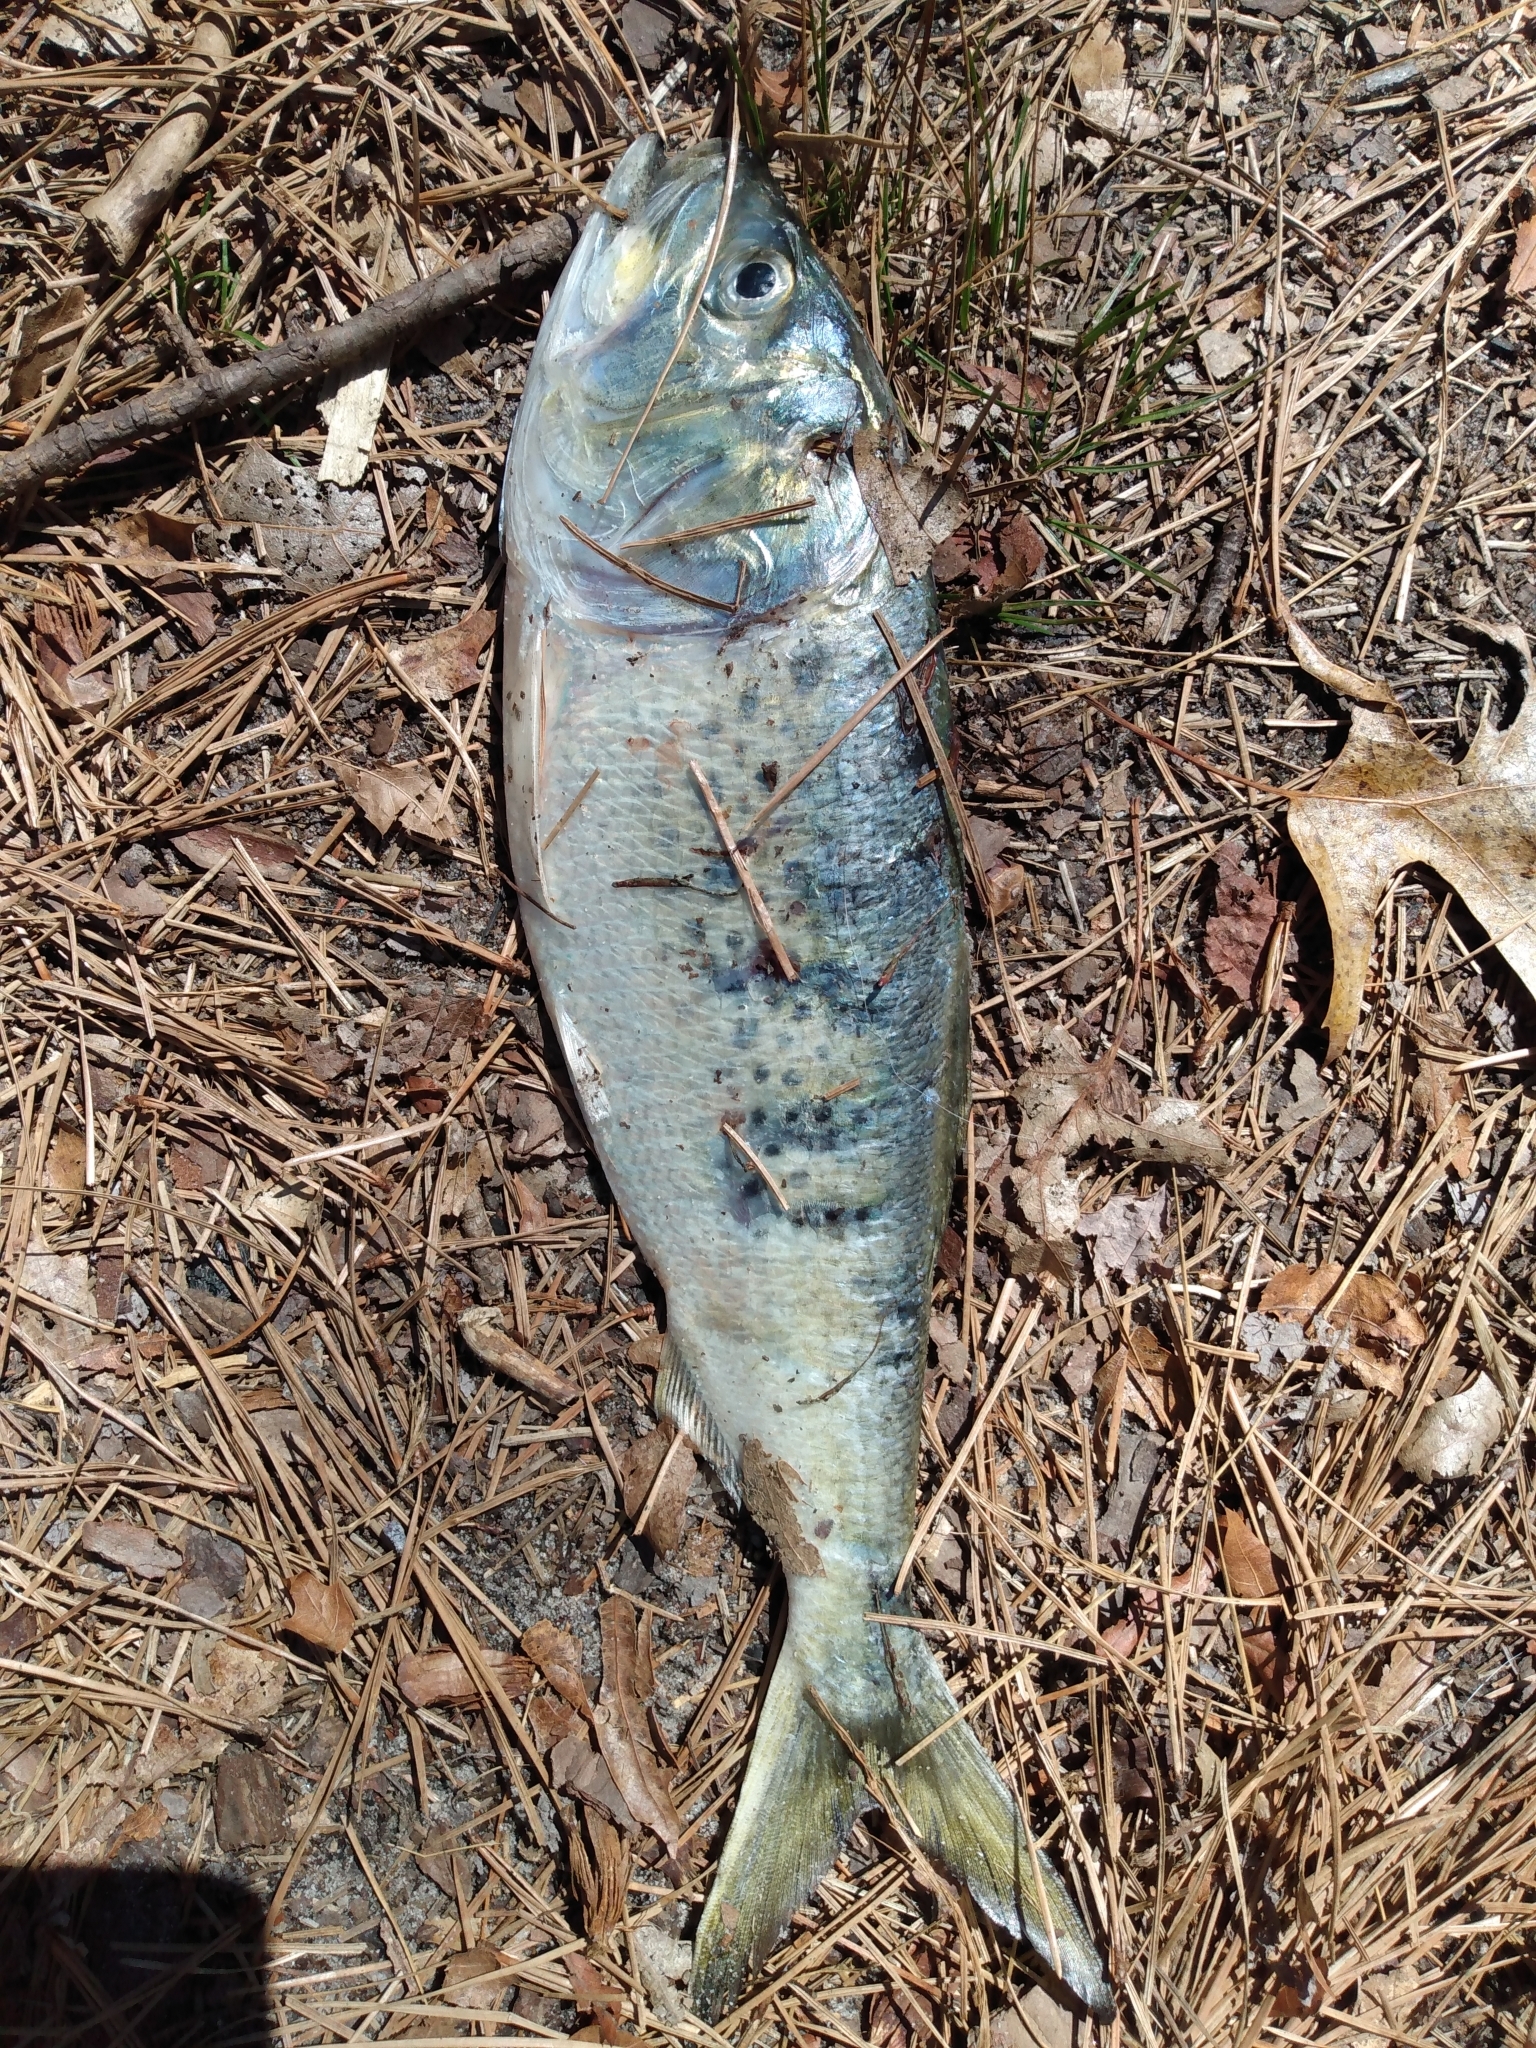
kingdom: Animalia
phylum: Chordata
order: Clupeiformes
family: Clupeidae
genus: Brevoortia
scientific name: Brevoortia tyrannus
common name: Atlantic menhaden
